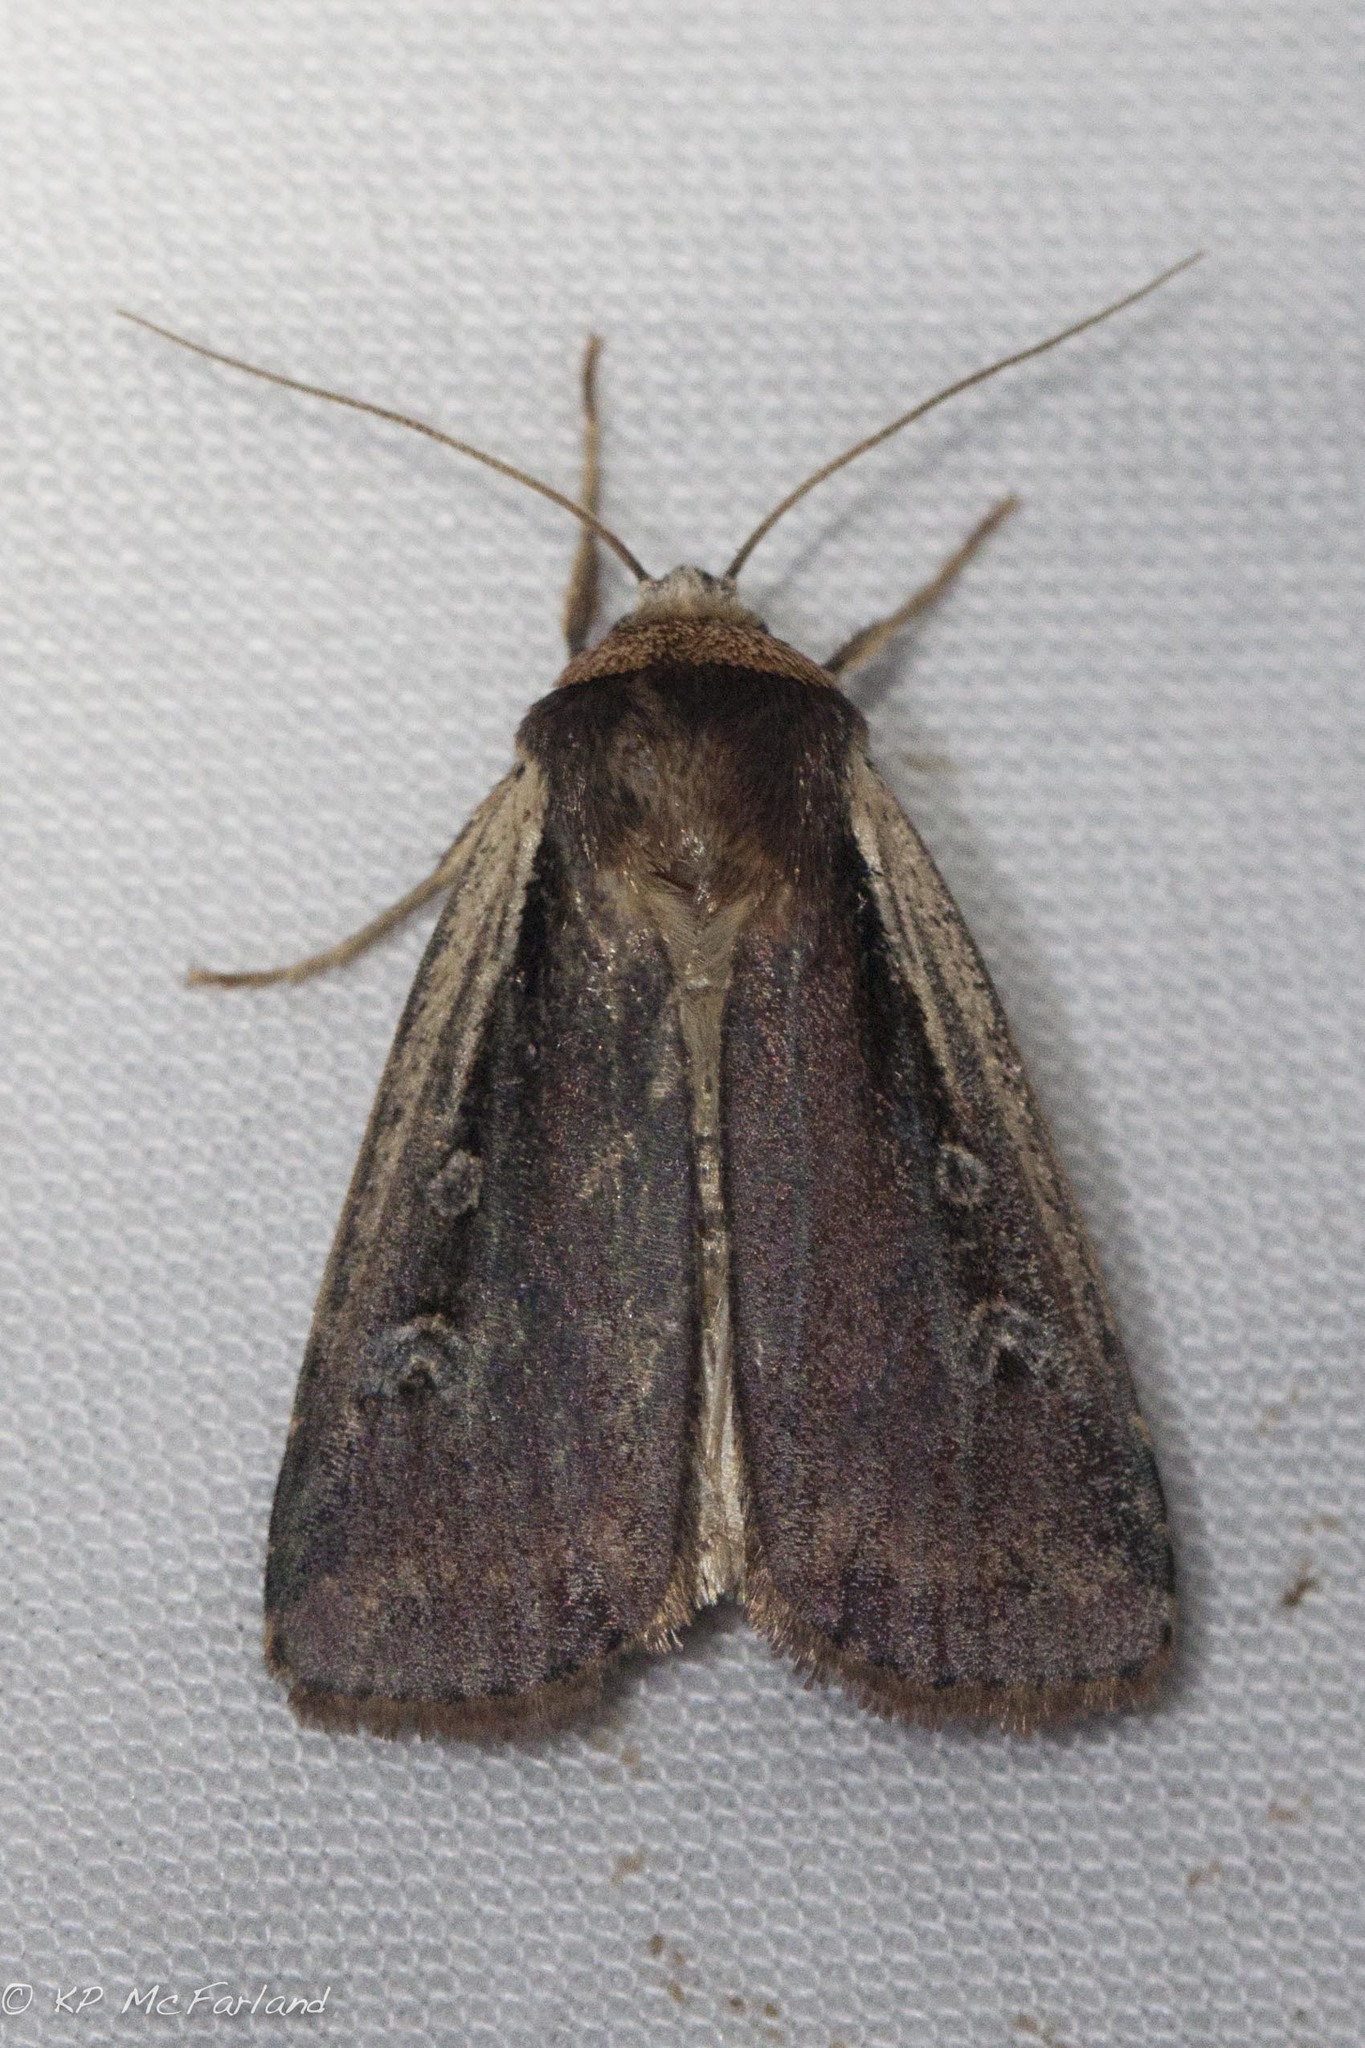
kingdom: Animalia
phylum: Arthropoda
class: Insecta
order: Lepidoptera
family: Noctuidae
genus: Ochropleura
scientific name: Ochropleura implecta
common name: Flame-shouldered dart
